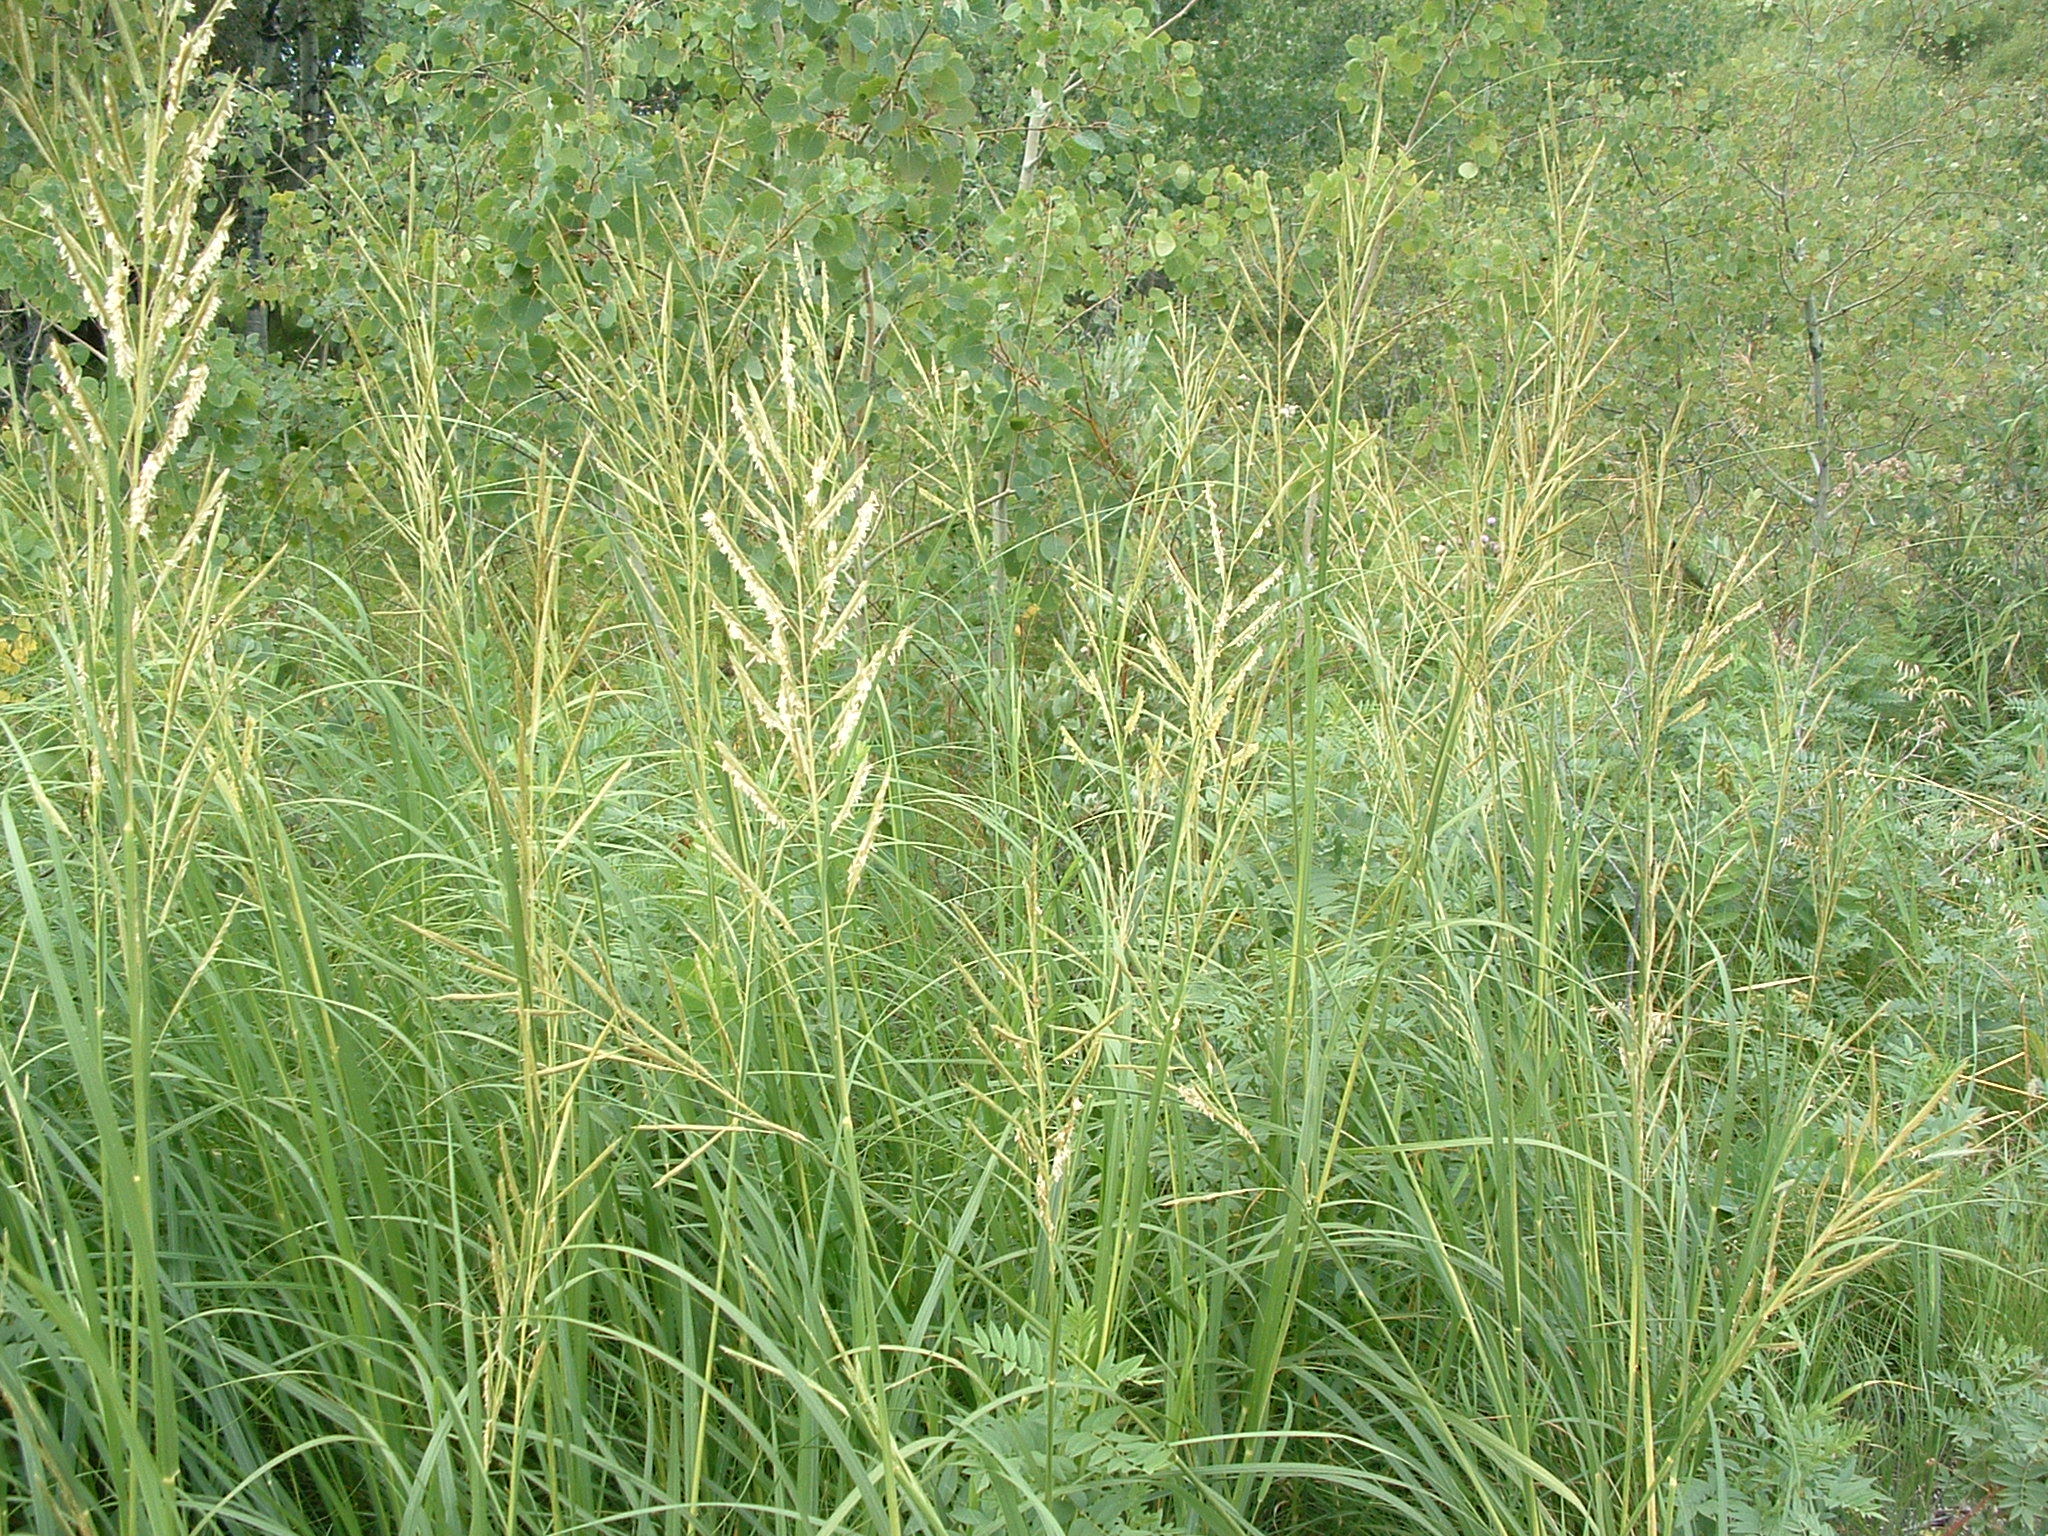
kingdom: Plantae
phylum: Tracheophyta
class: Liliopsida
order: Poales
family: Poaceae
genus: Sporobolus
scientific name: Sporobolus michauxianus
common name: Freshwater cordgrass
